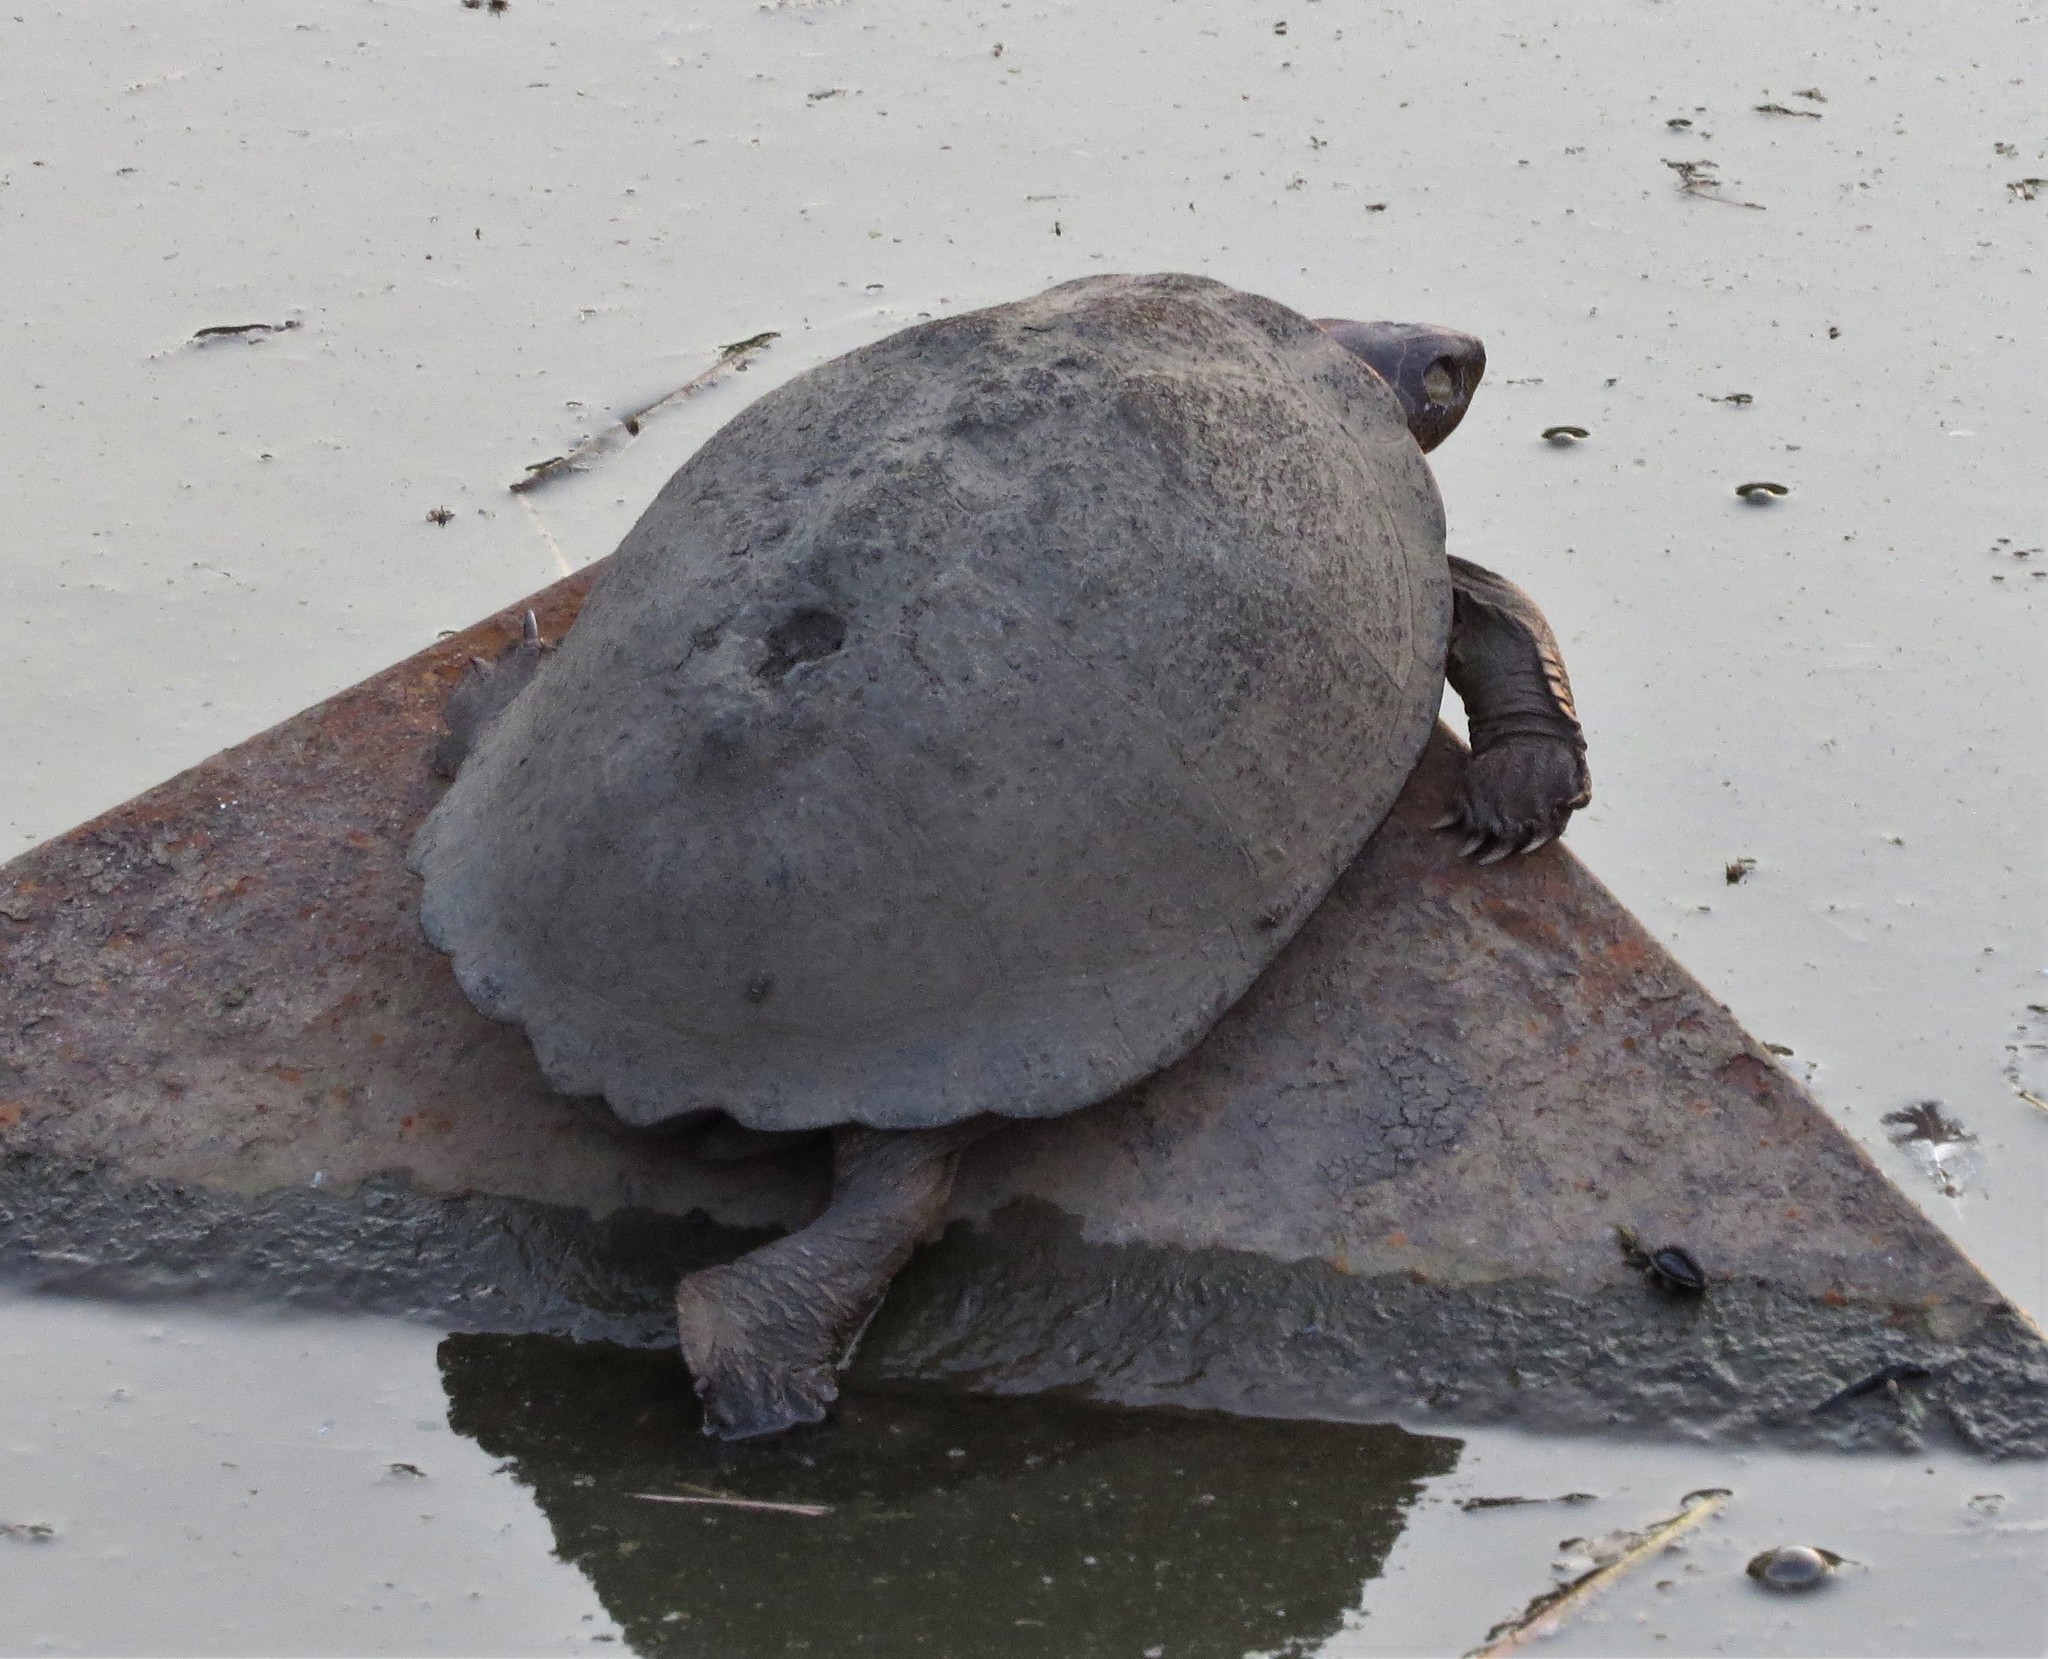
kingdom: Animalia
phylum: Chordata
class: Testudines
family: Pelomedusidae
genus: Pelusios
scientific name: Pelusios sinuatus
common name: Serrated hinged terrapin
